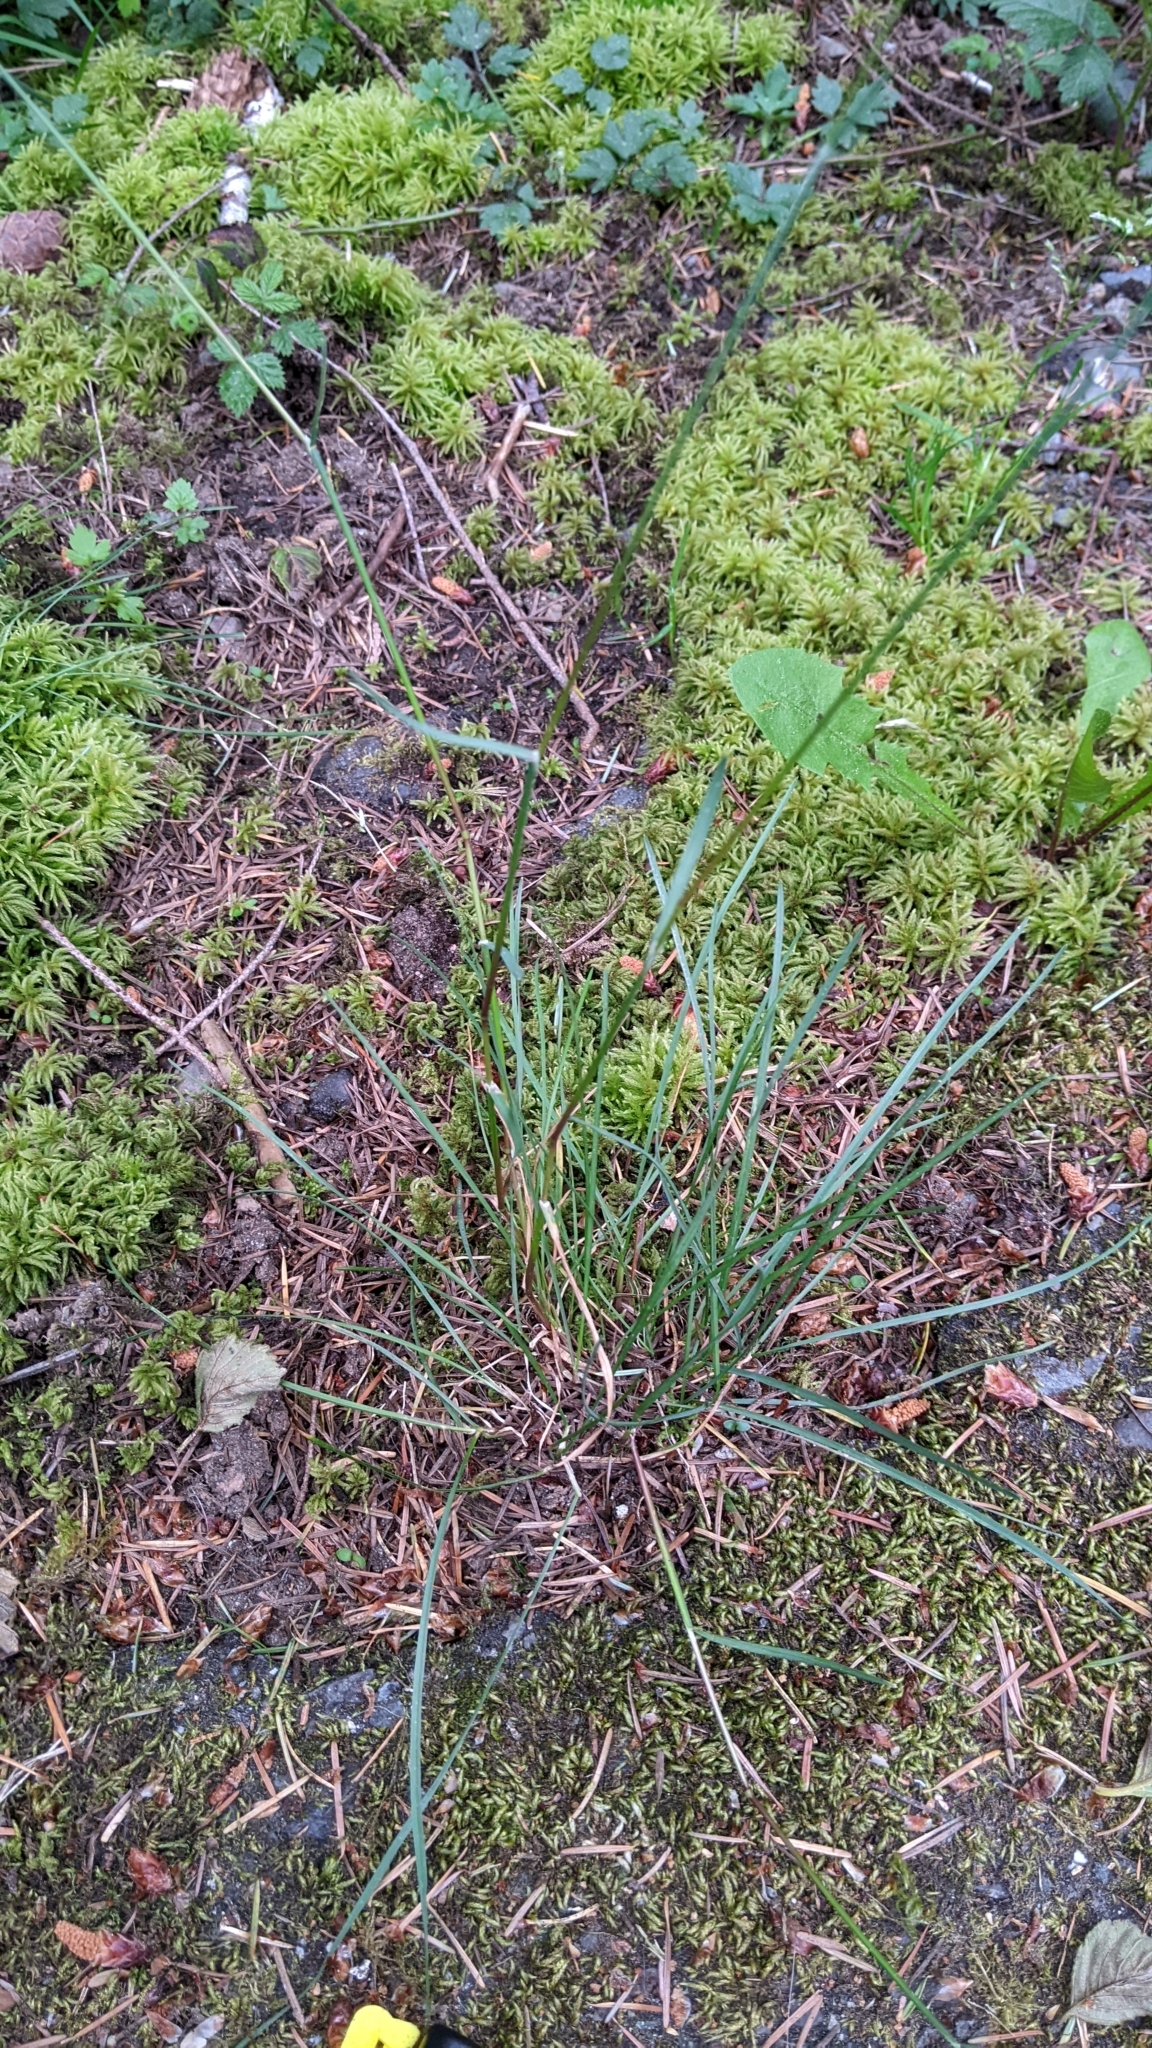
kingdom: Plantae
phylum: Tracheophyta
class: Liliopsida
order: Poales
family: Poaceae
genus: Poa
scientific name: Poa bulbosa
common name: Bulbous bluegrass
